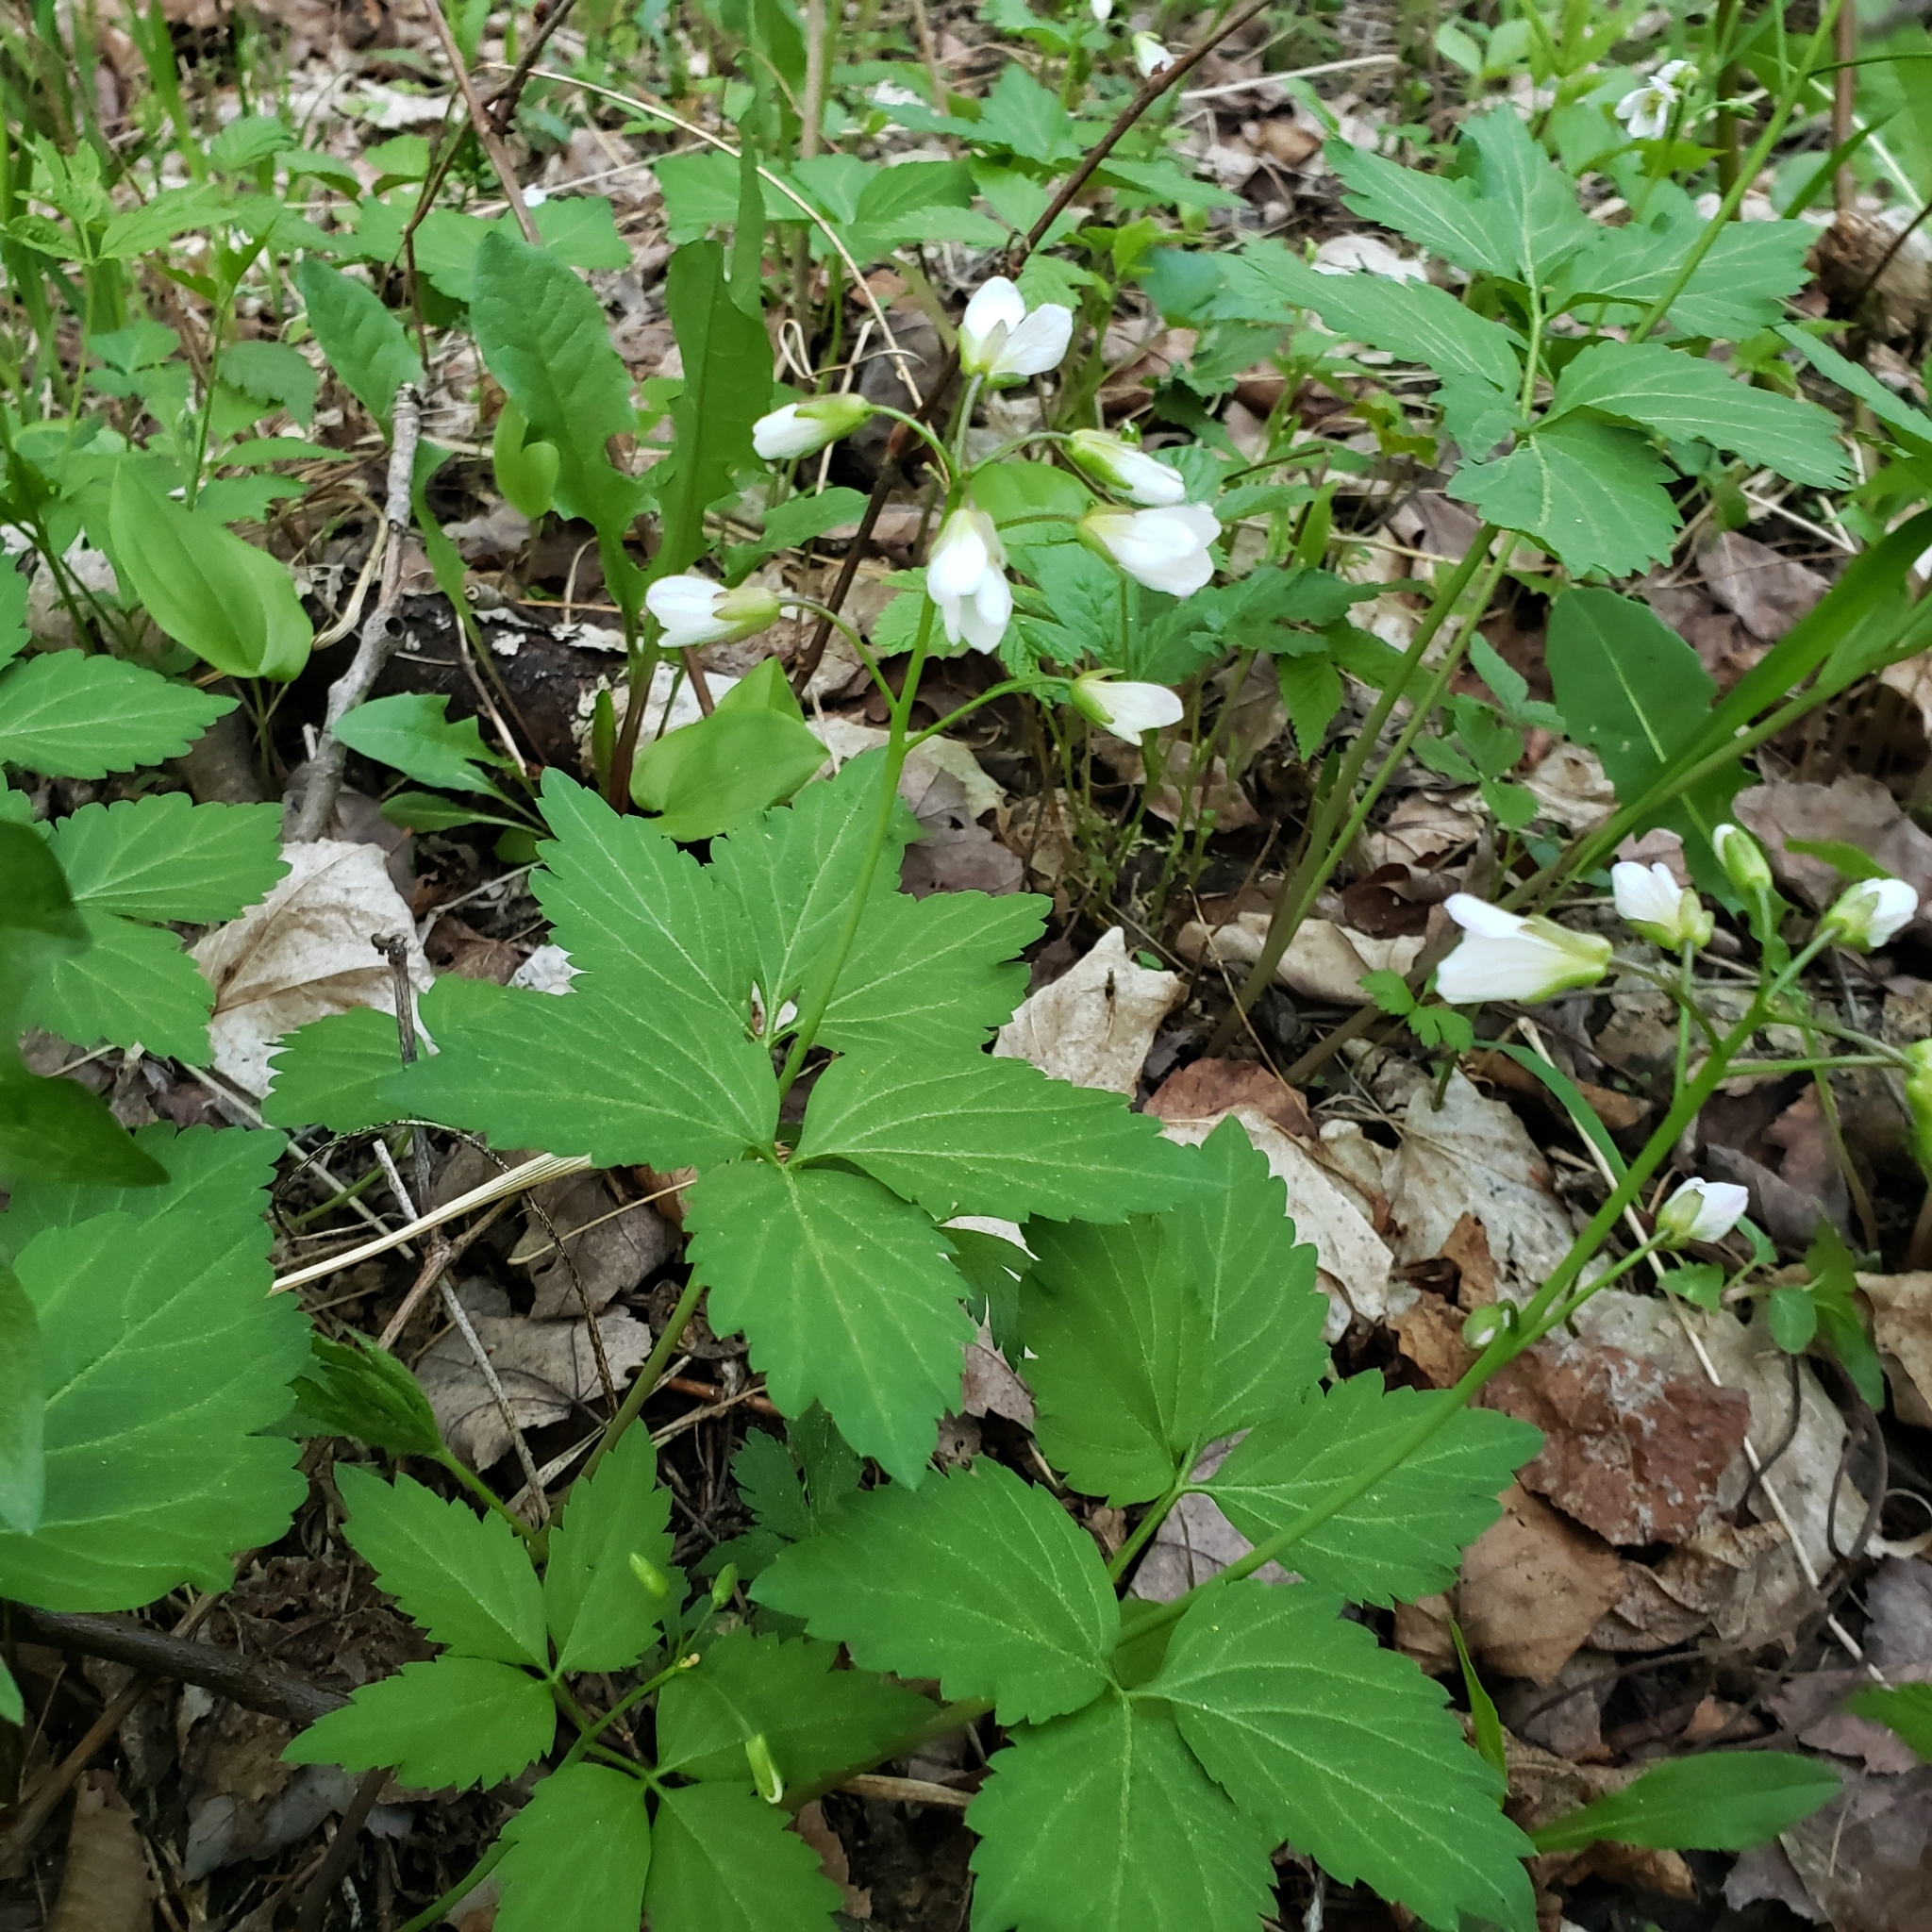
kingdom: Plantae
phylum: Tracheophyta
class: Magnoliopsida
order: Brassicales
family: Brassicaceae
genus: Cardamine
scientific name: Cardamine diphylla
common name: Broad-leaved toothwort
